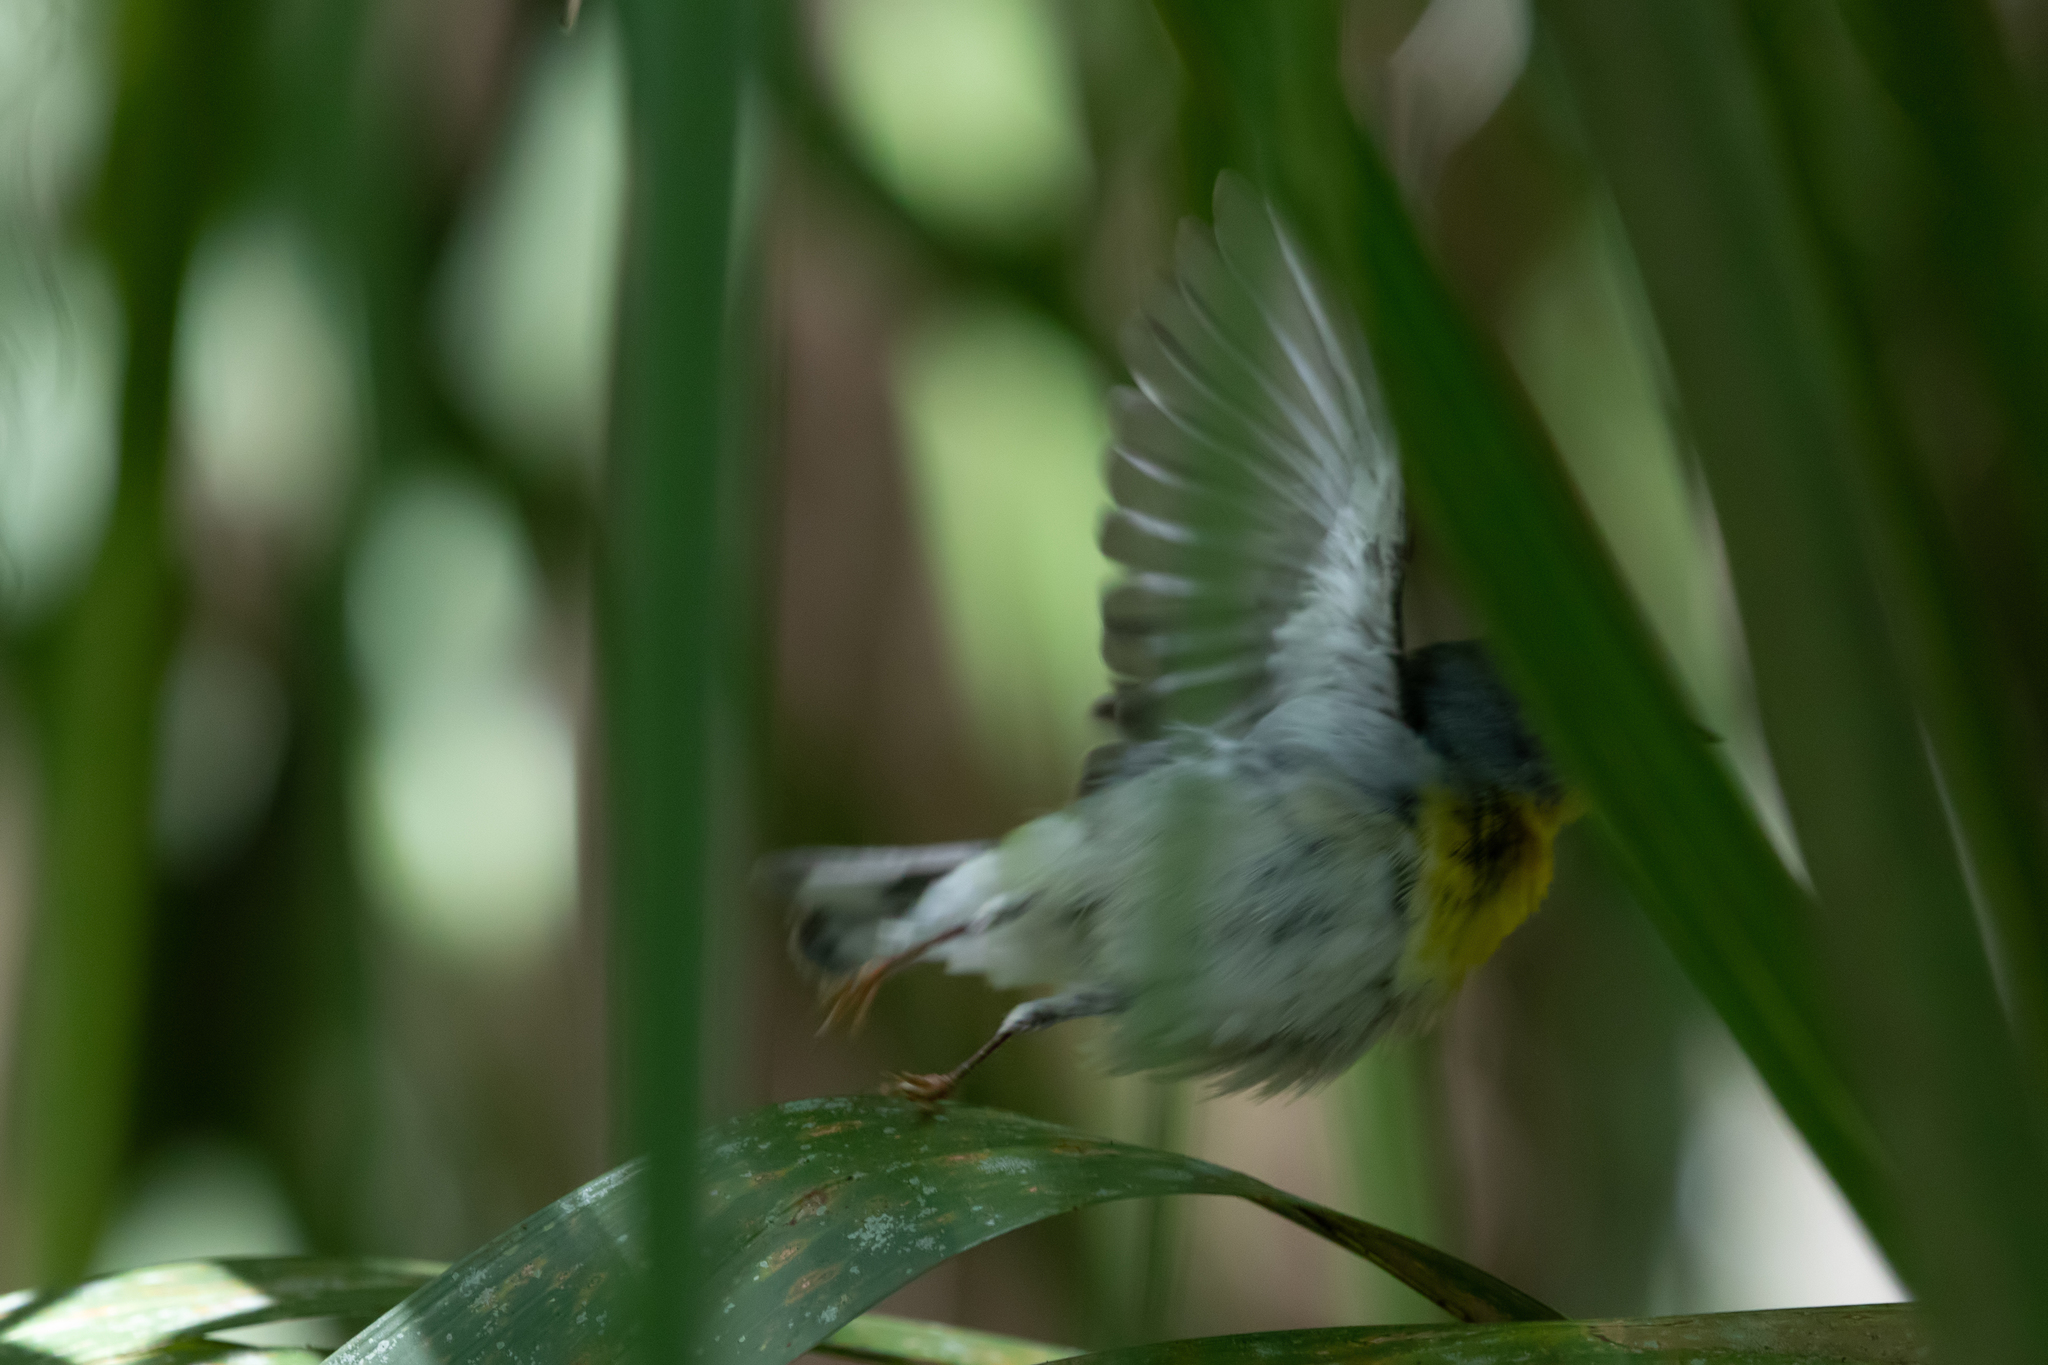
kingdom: Animalia
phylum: Chordata
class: Aves
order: Passeriformes
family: Parulidae
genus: Setophaga
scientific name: Setophaga americana
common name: Northern parula
